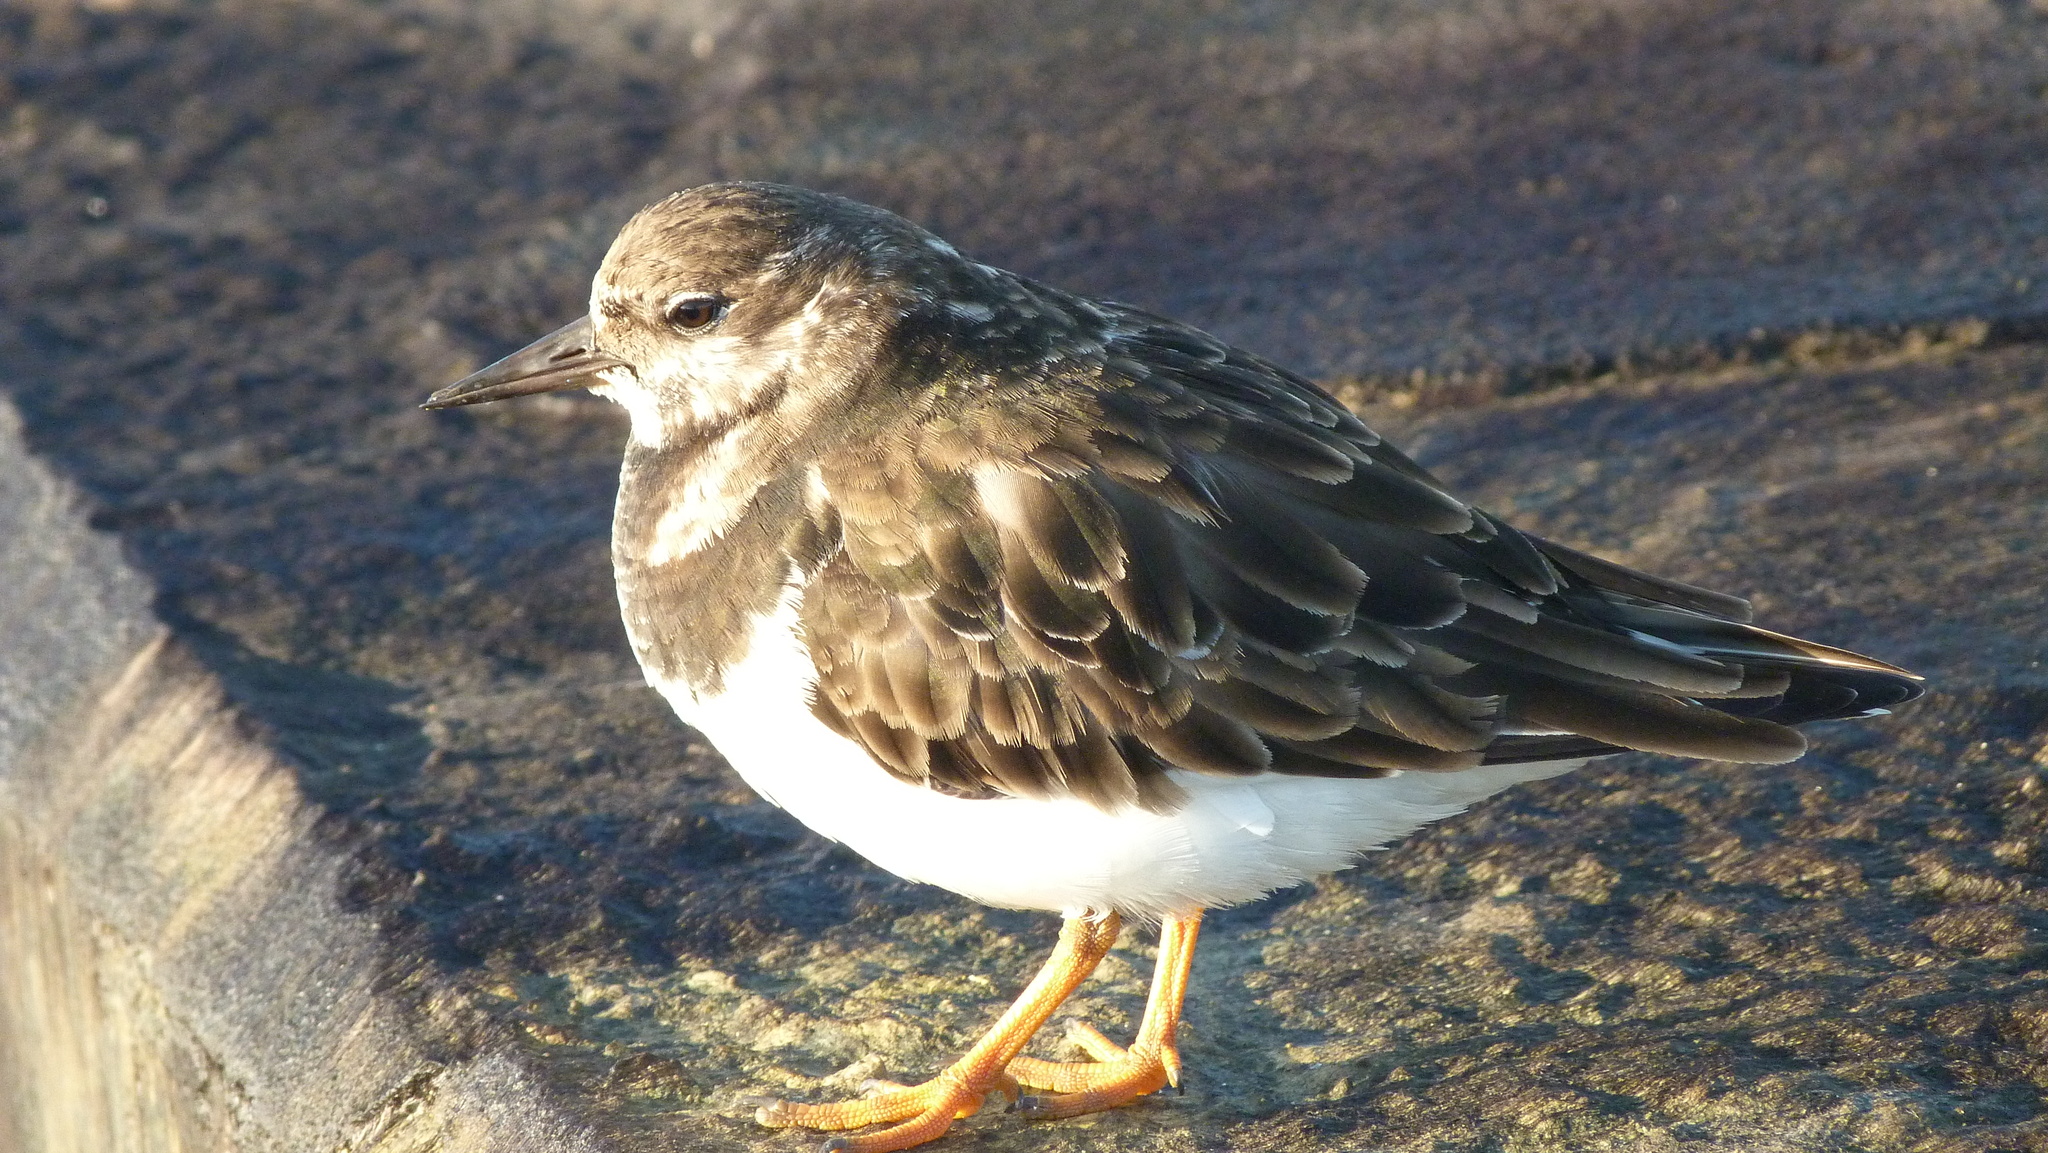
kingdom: Animalia
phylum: Chordata
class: Aves
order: Charadriiformes
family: Scolopacidae
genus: Arenaria
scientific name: Arenaria interpres
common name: Ruddy turnstone
